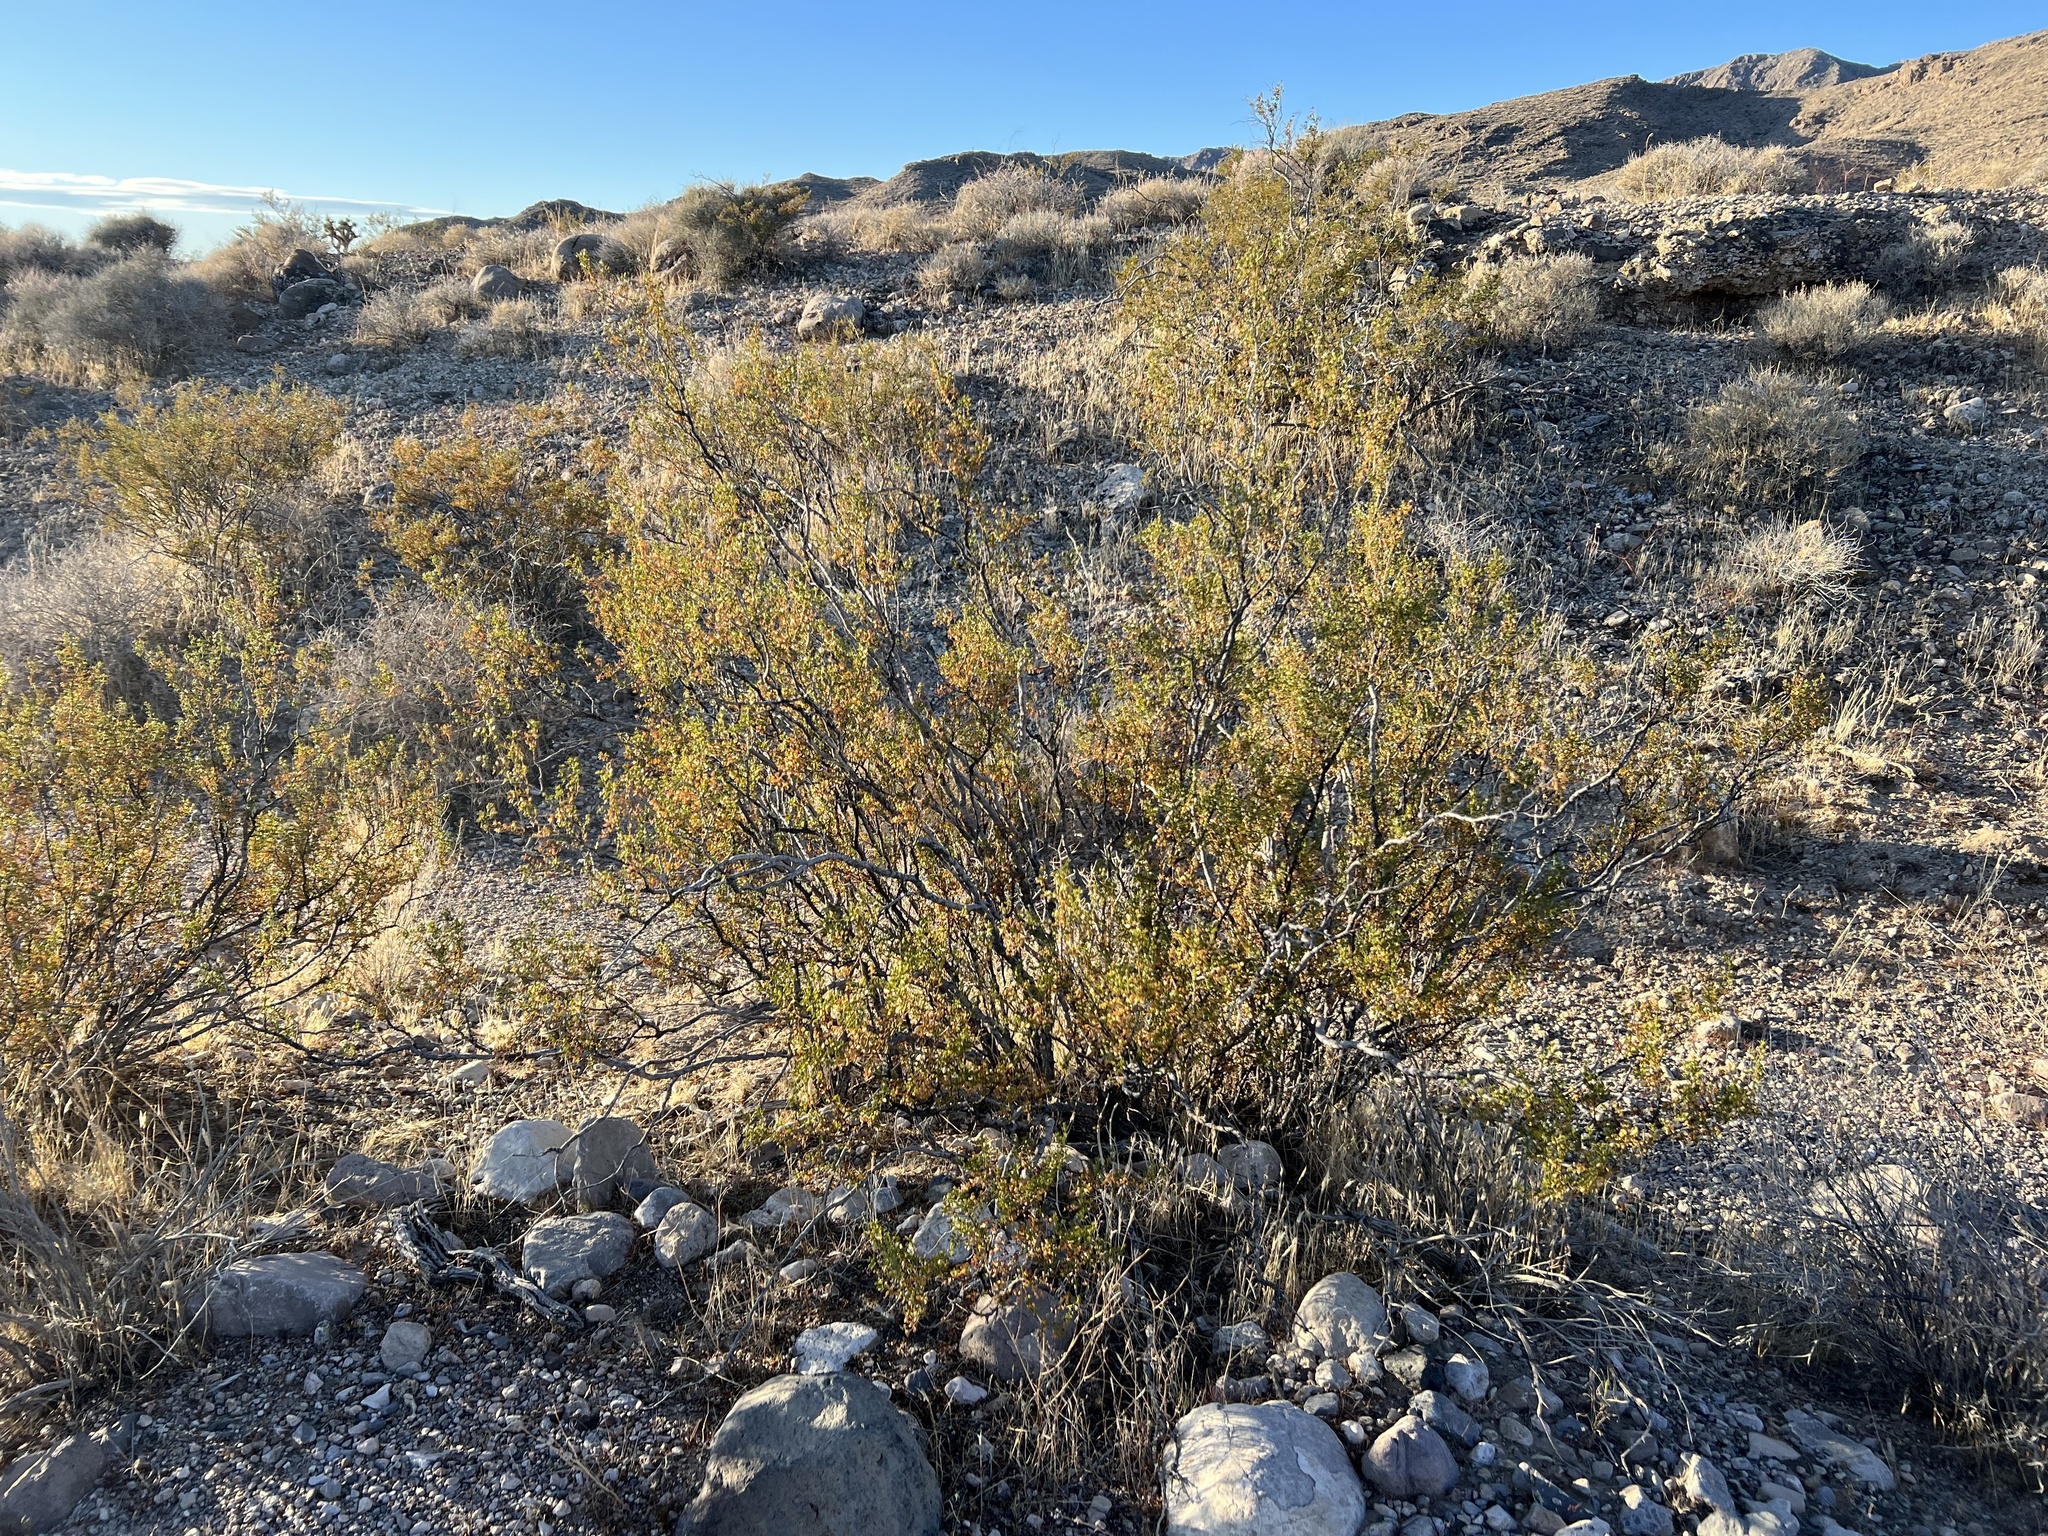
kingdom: Plantae
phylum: Tracheophyta
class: Magnoliopsida
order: Zygophyllales
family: Zygophyllaceae
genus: Larrea
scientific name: Larrea tridentata
